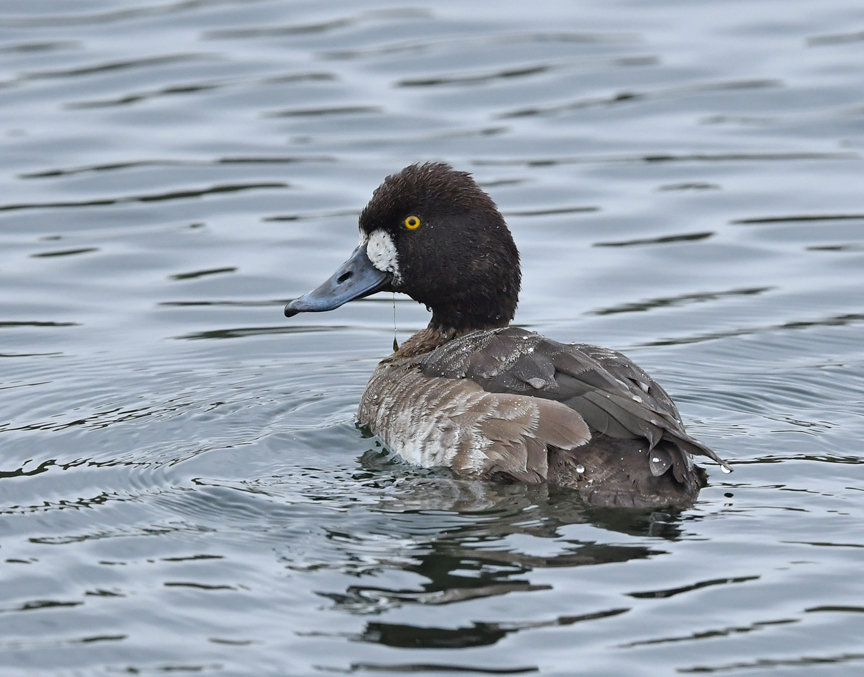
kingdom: Animalia
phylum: Chordata
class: Aves
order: Anseriformes
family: Anatidae
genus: Aythya
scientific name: Aythya affinis
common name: Lesser scaup
